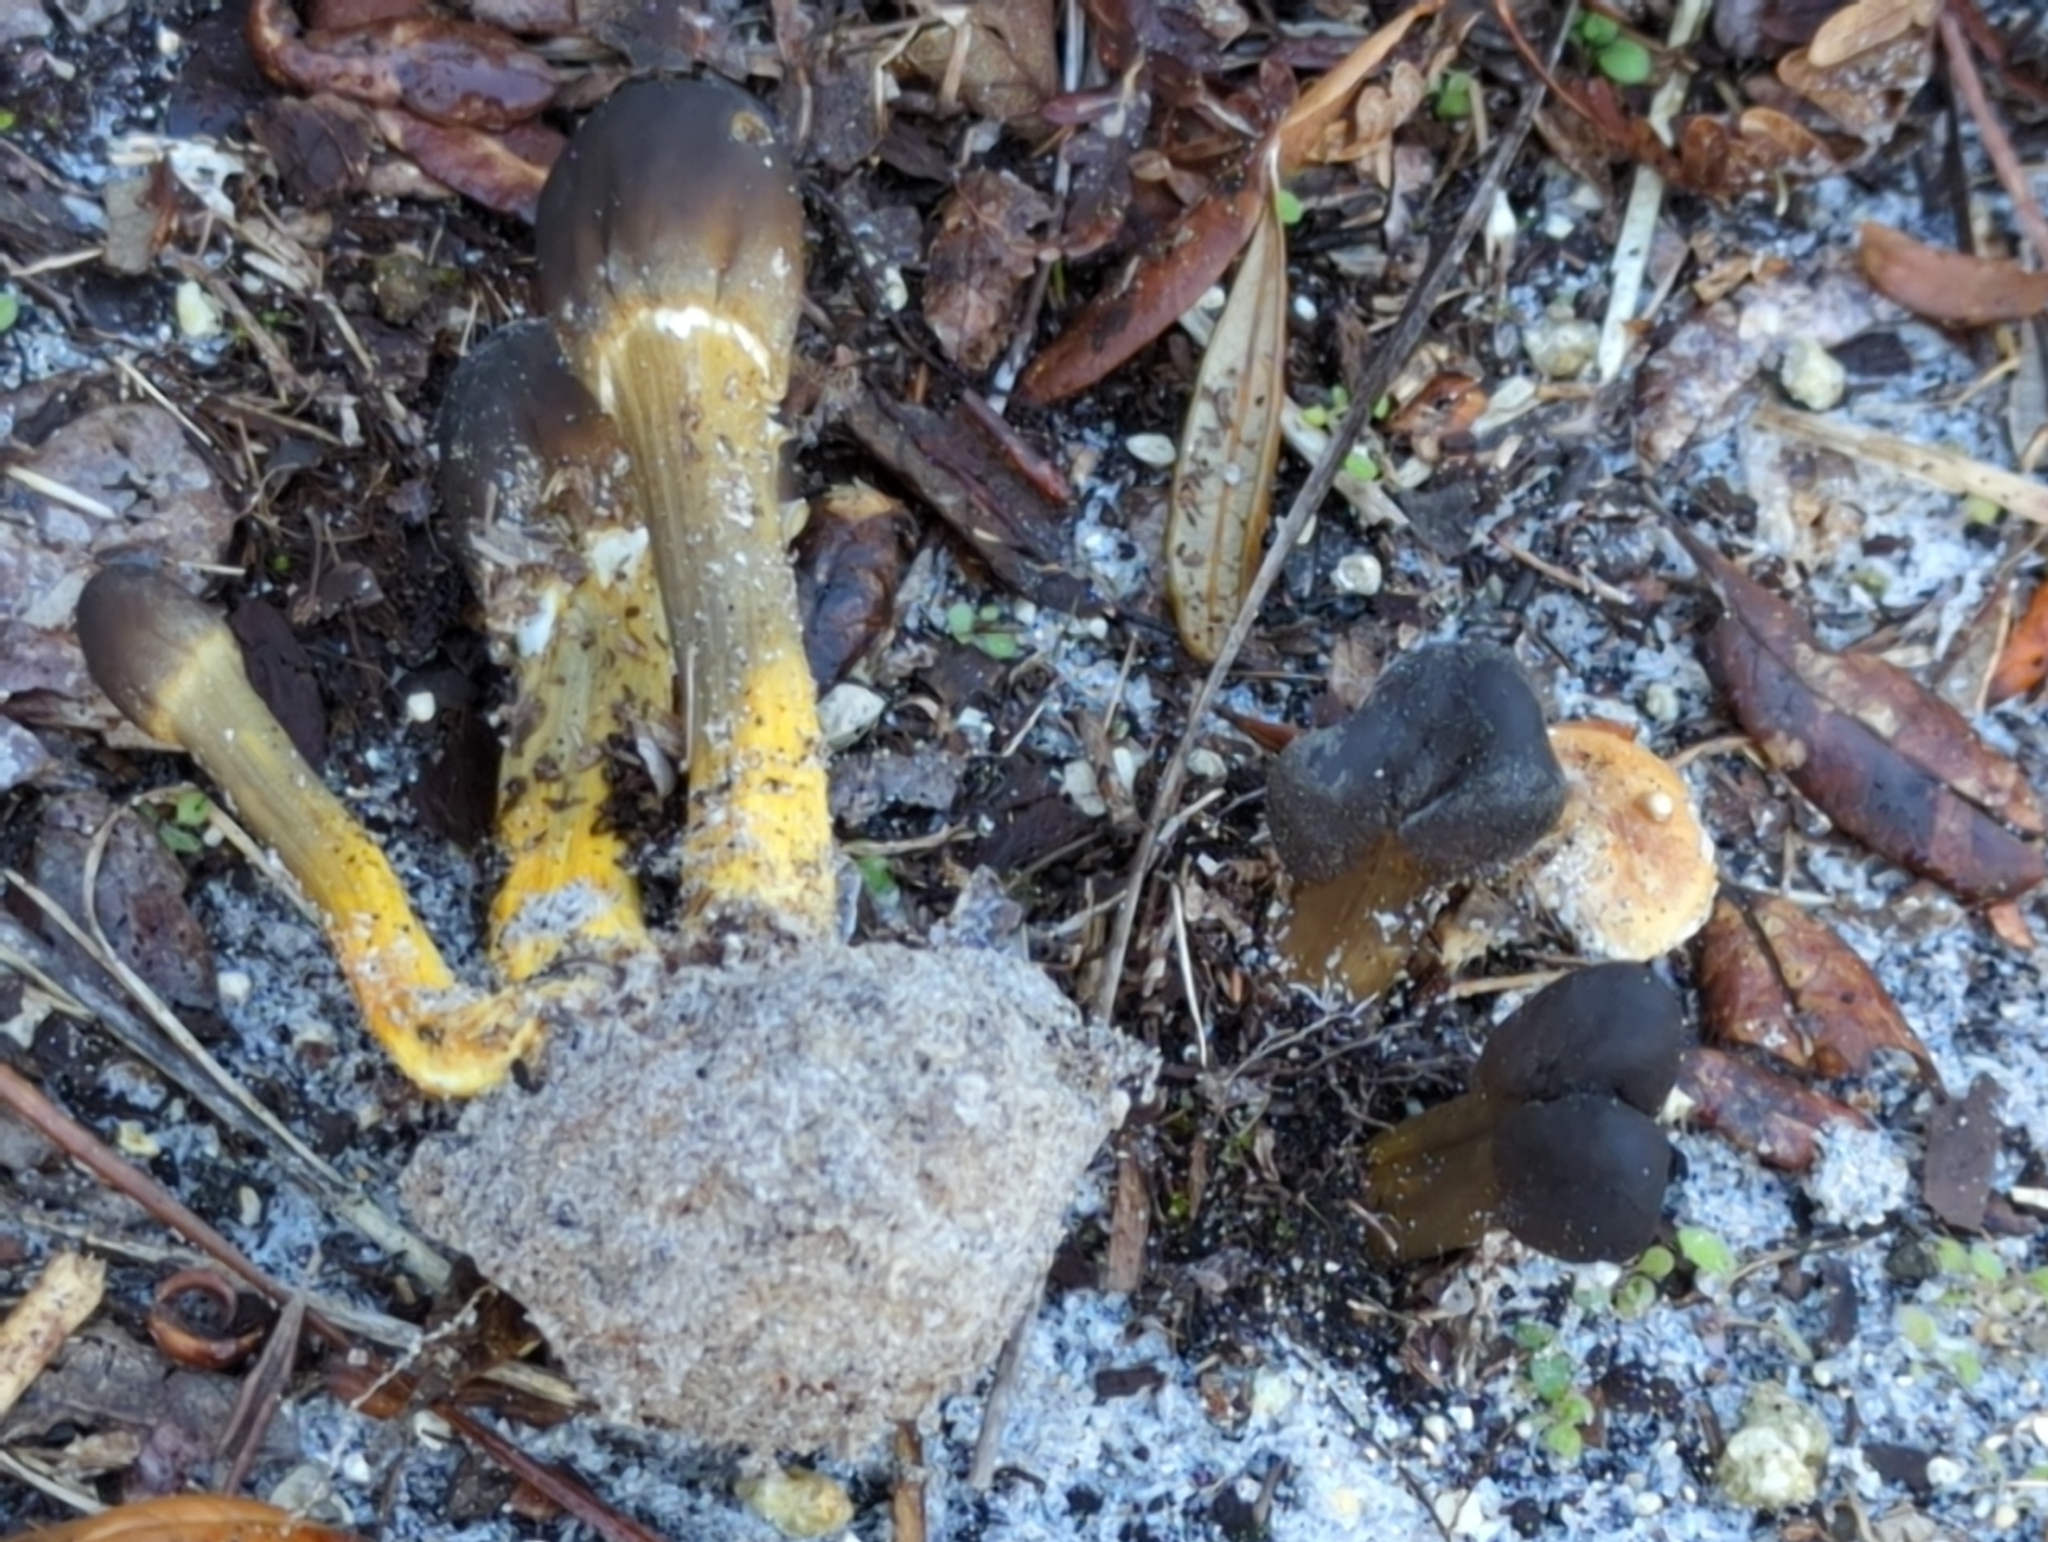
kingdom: Fungi
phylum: Ascomycota
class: Sordariomycetes
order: Hypocreales
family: Ophiocordycipitaceae
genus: Tolypocladium
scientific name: Tolypocladium capitatum
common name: Capitate truffleclub
